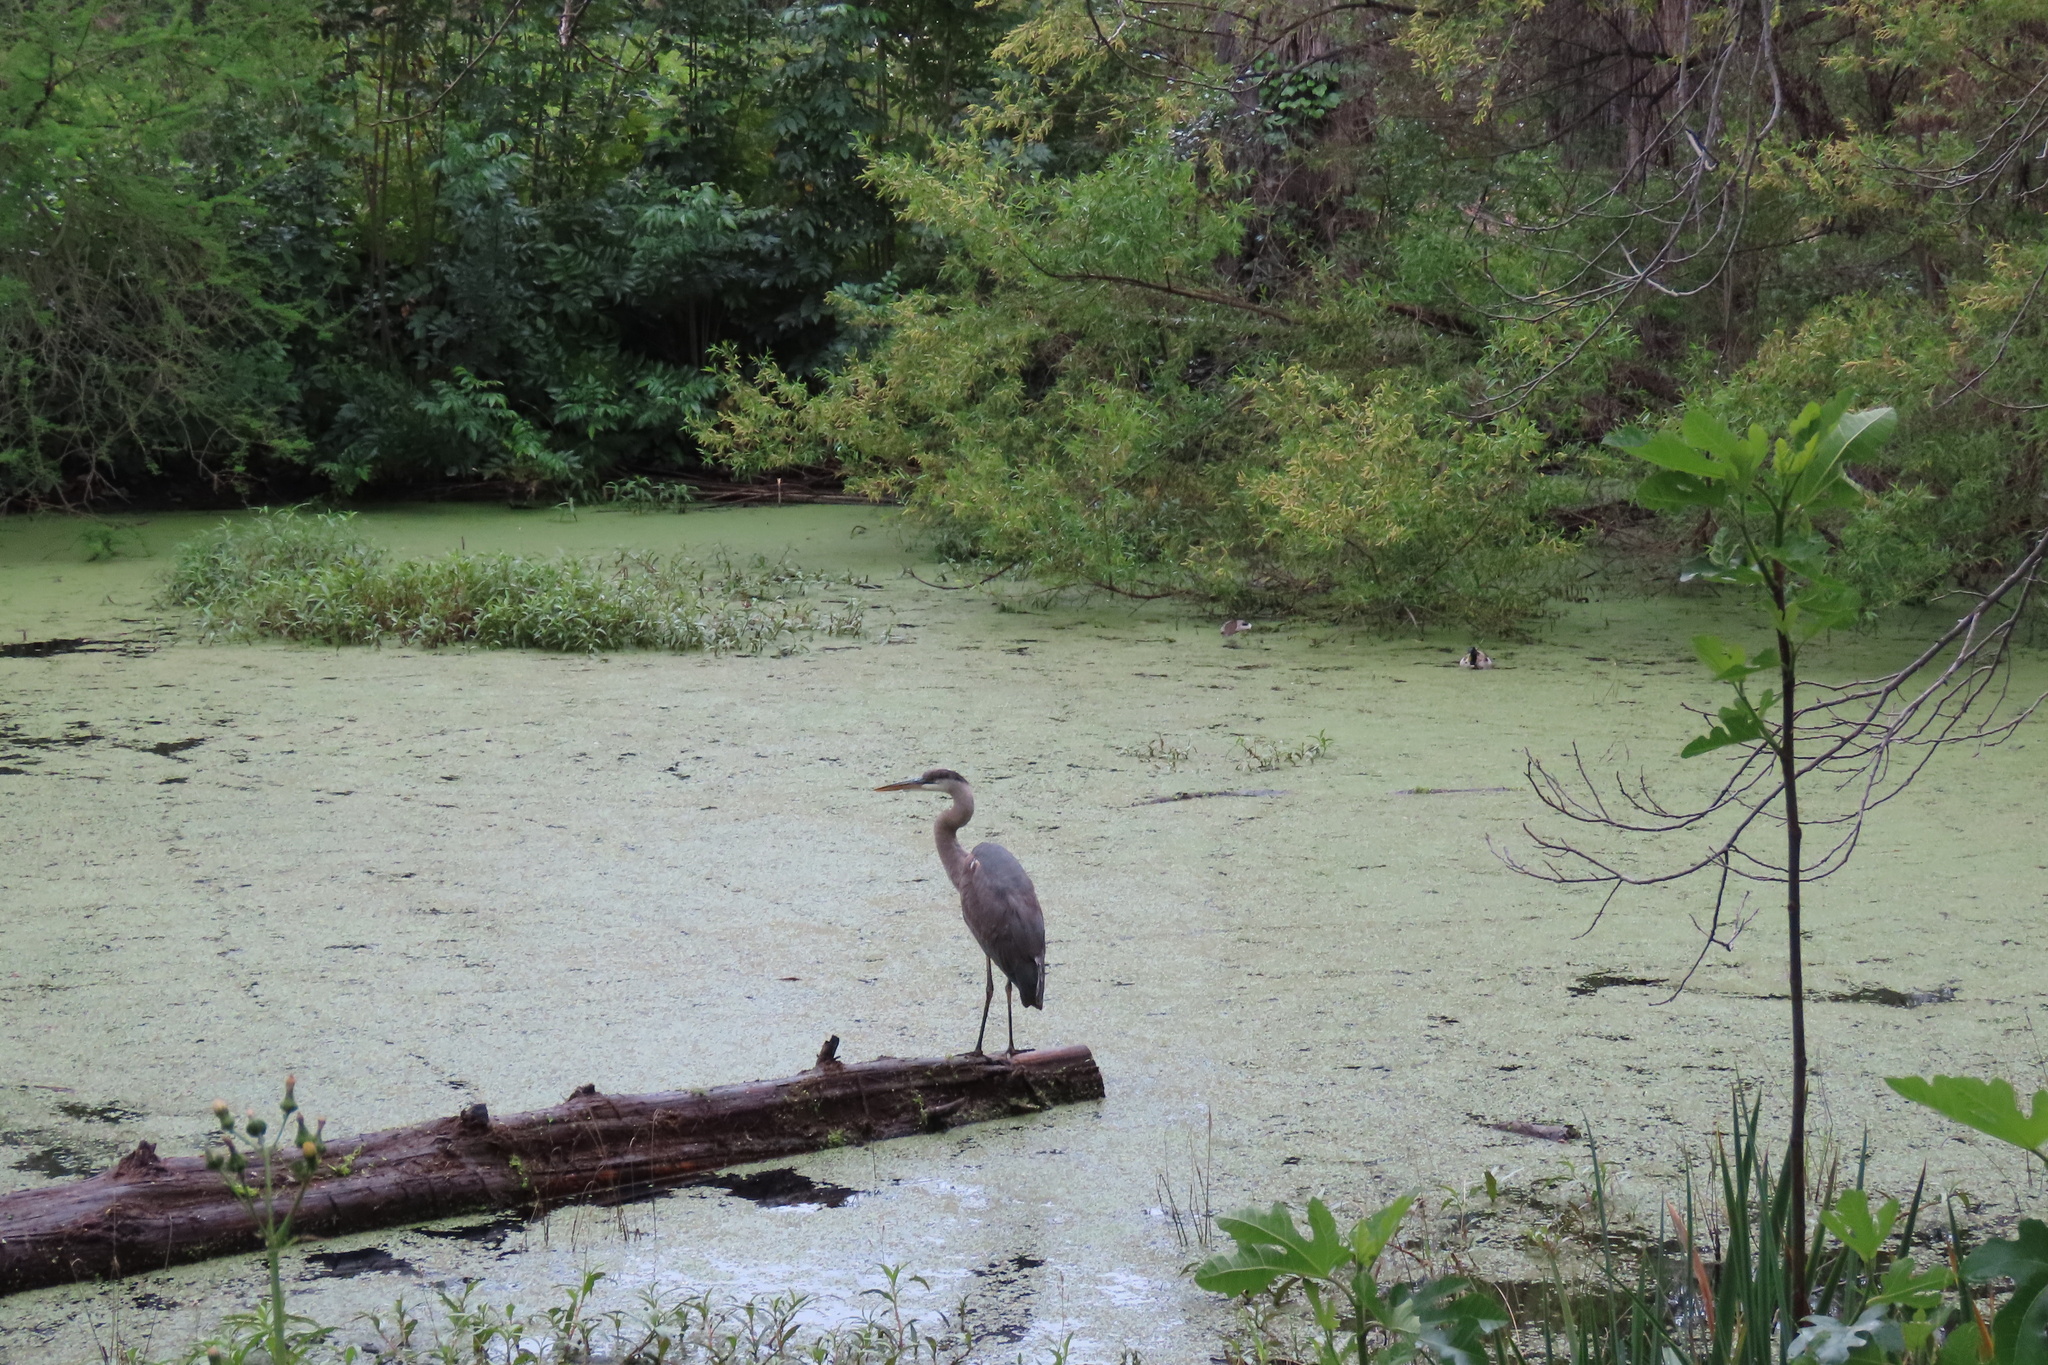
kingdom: Animalia
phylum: Chordata
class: Aves
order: Pelecaniformes
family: Ardeidae
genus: Ardea
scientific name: Ardea herodias
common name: Great blue heron
